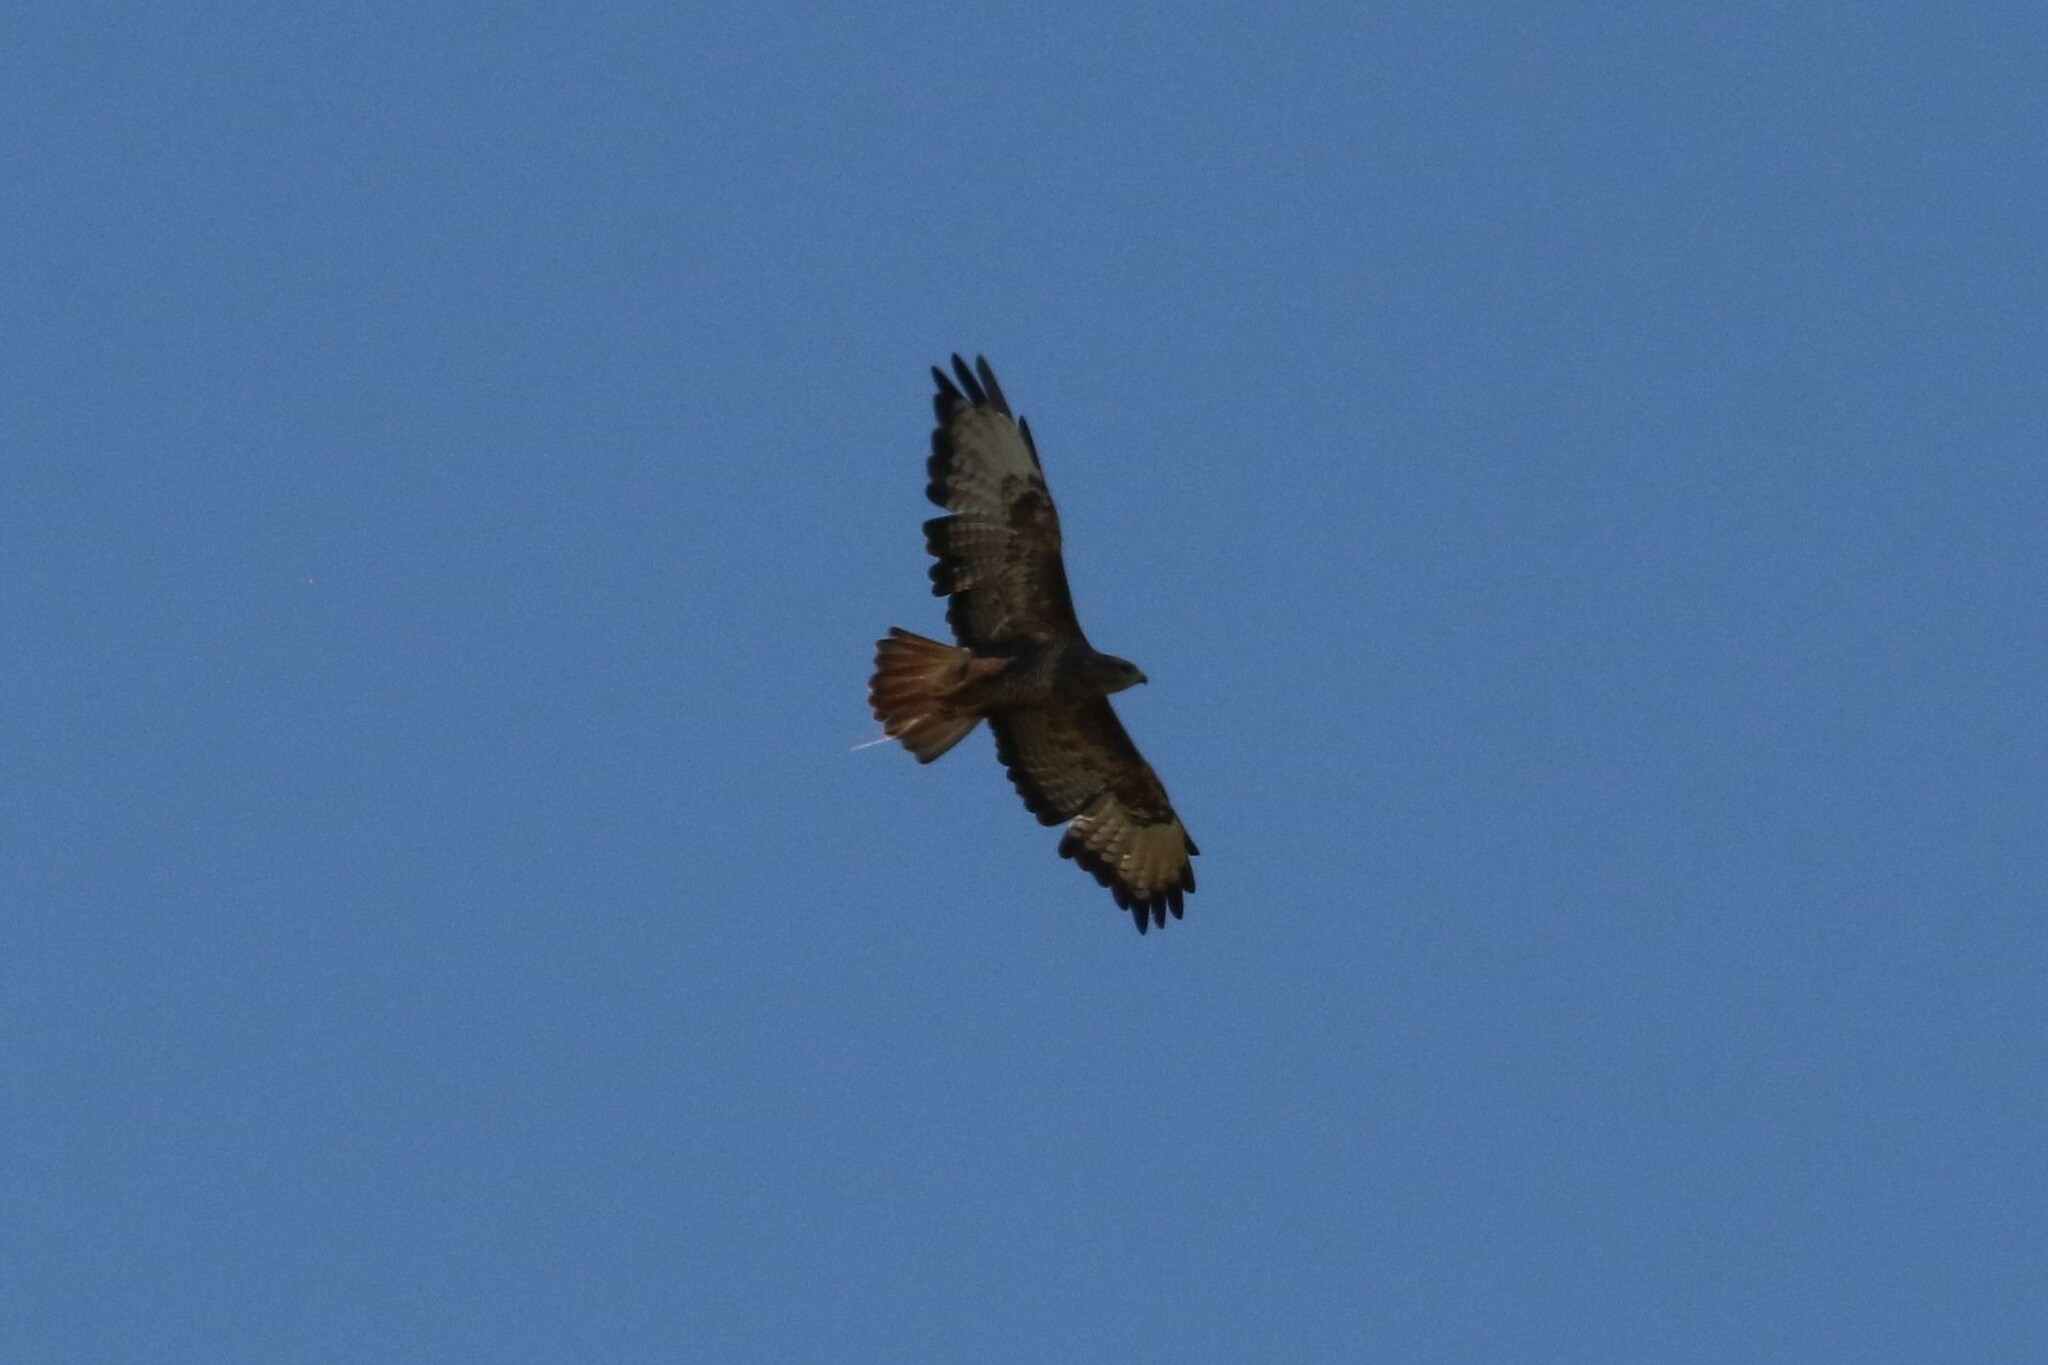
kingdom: Animalia
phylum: Chordata
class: Aves
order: Accipitriformes
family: Accipitridae
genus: Buteo
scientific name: Buteo buteo
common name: Common buzzard
